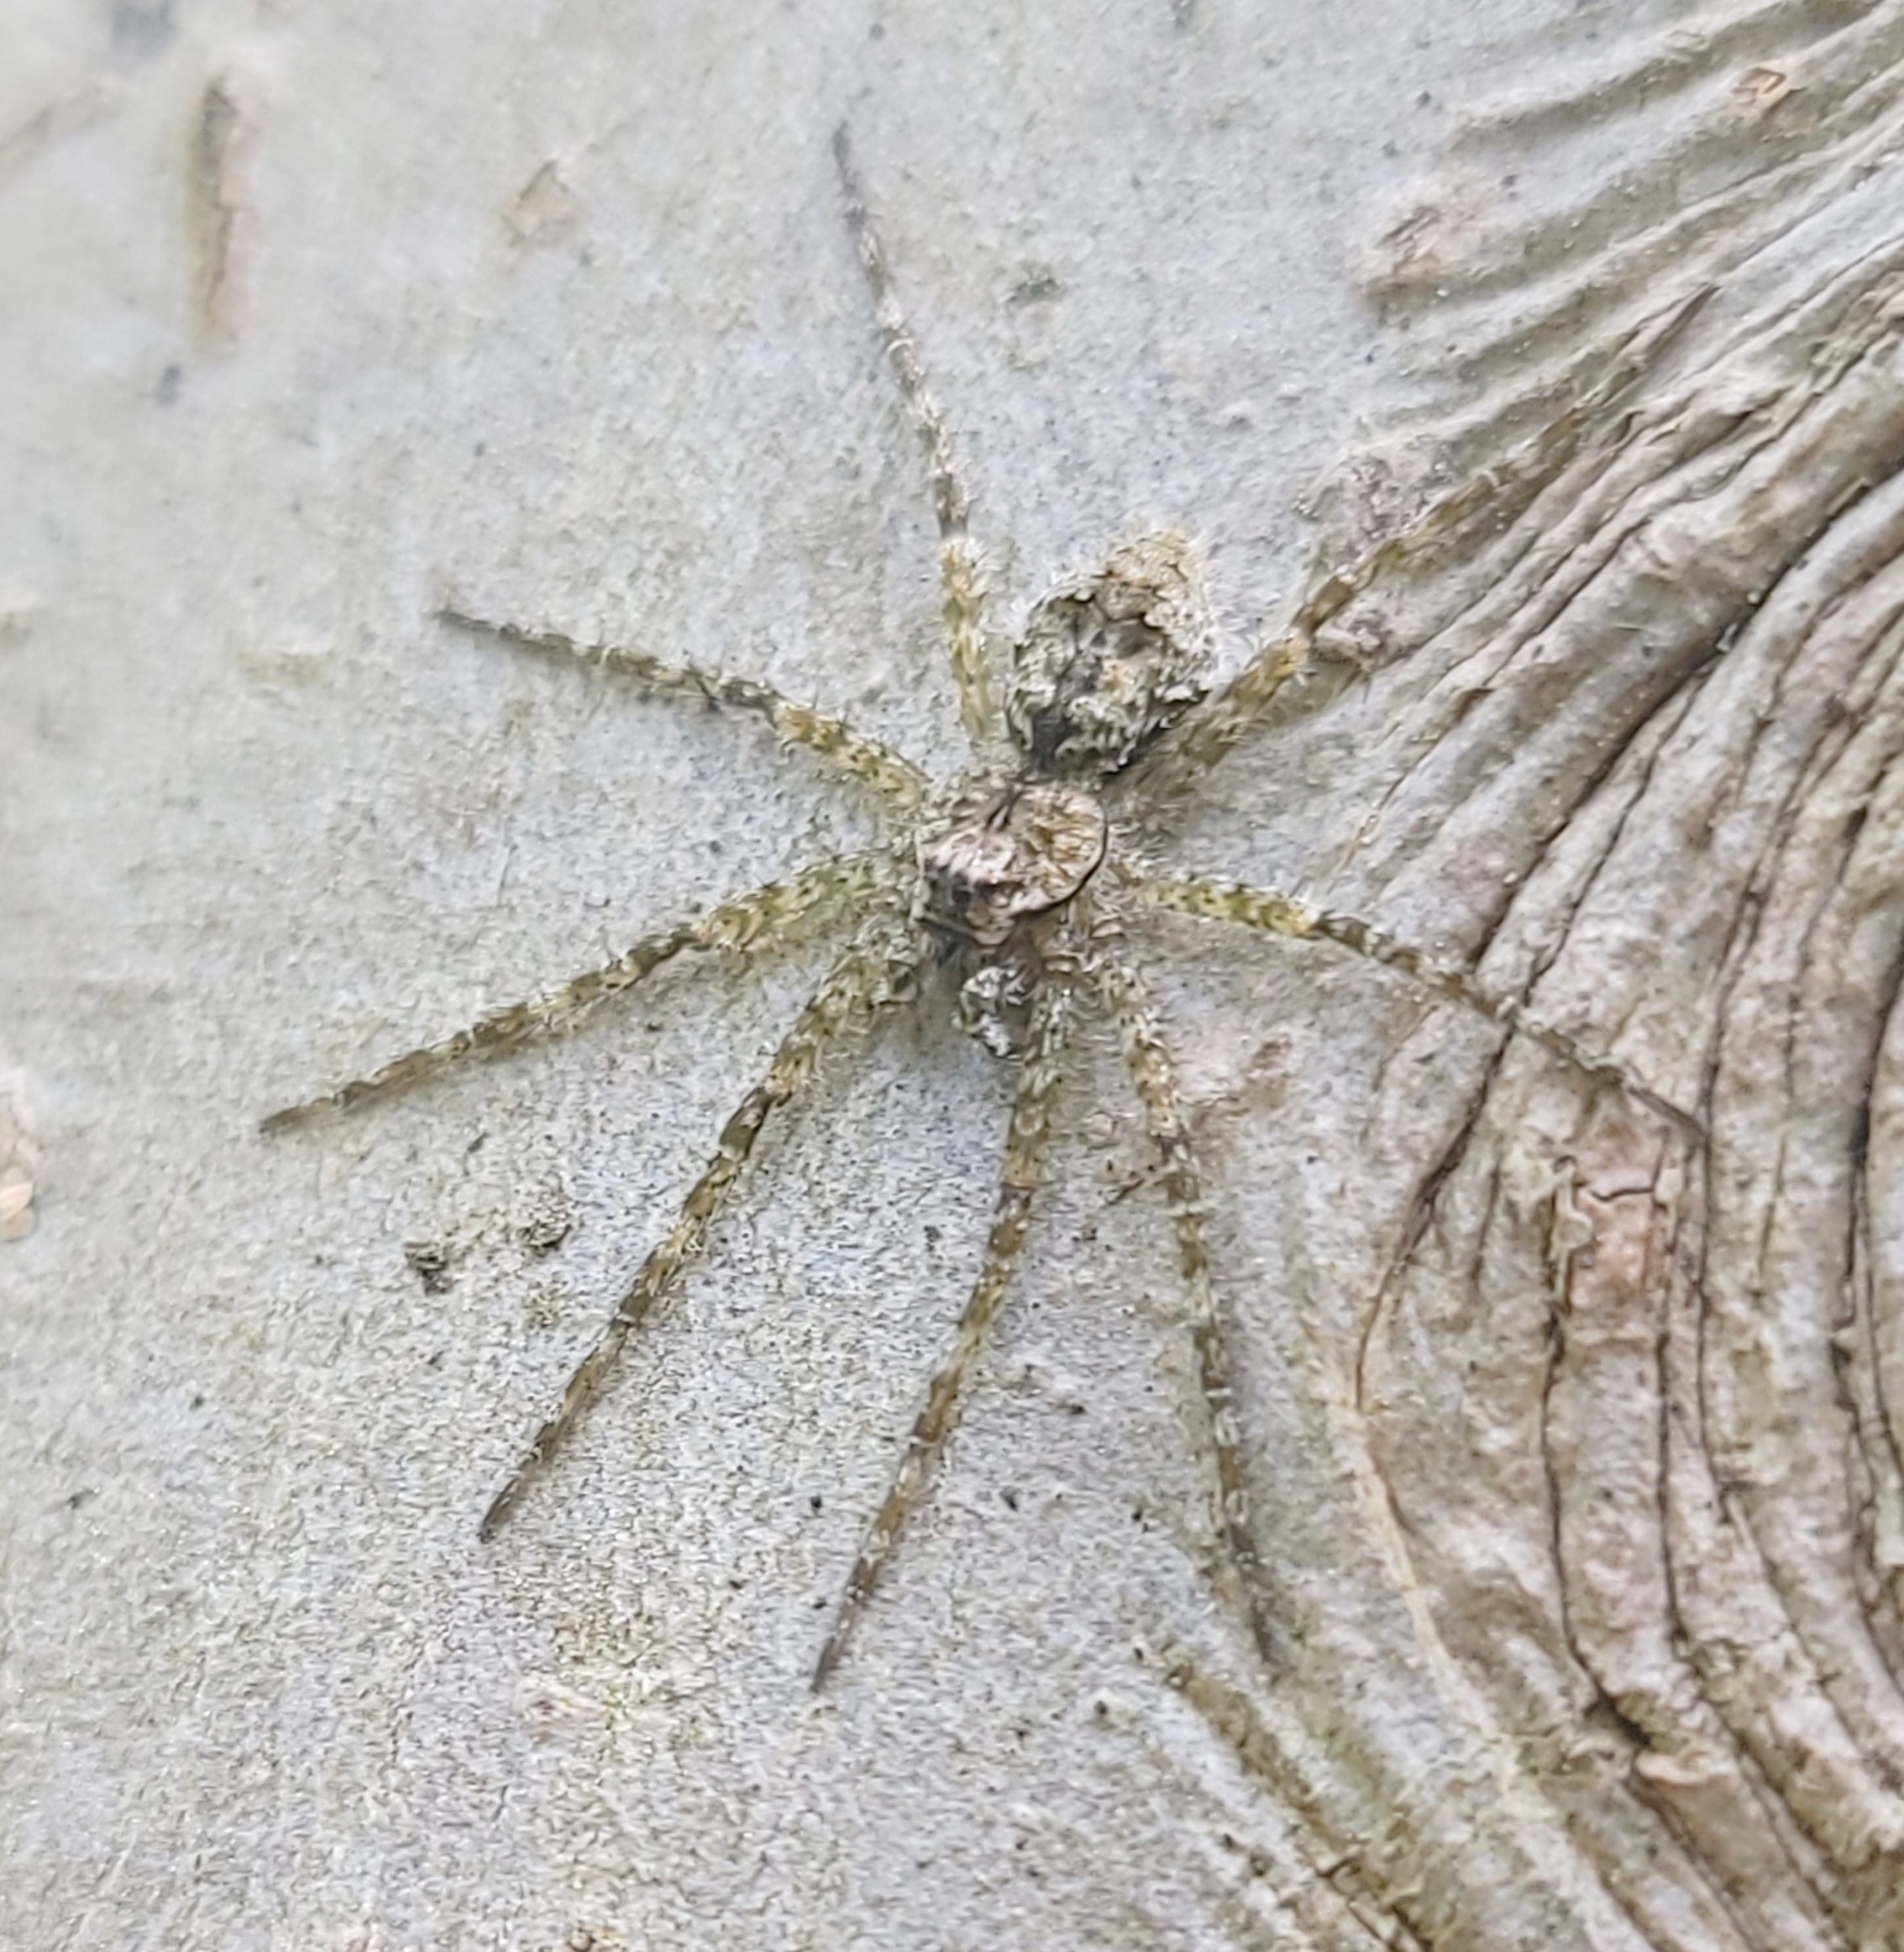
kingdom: Animalia
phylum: Arthropoda
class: Arachnida
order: Araneae
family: Pisauridae
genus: Dolomedes
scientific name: Dolomedes albineus
